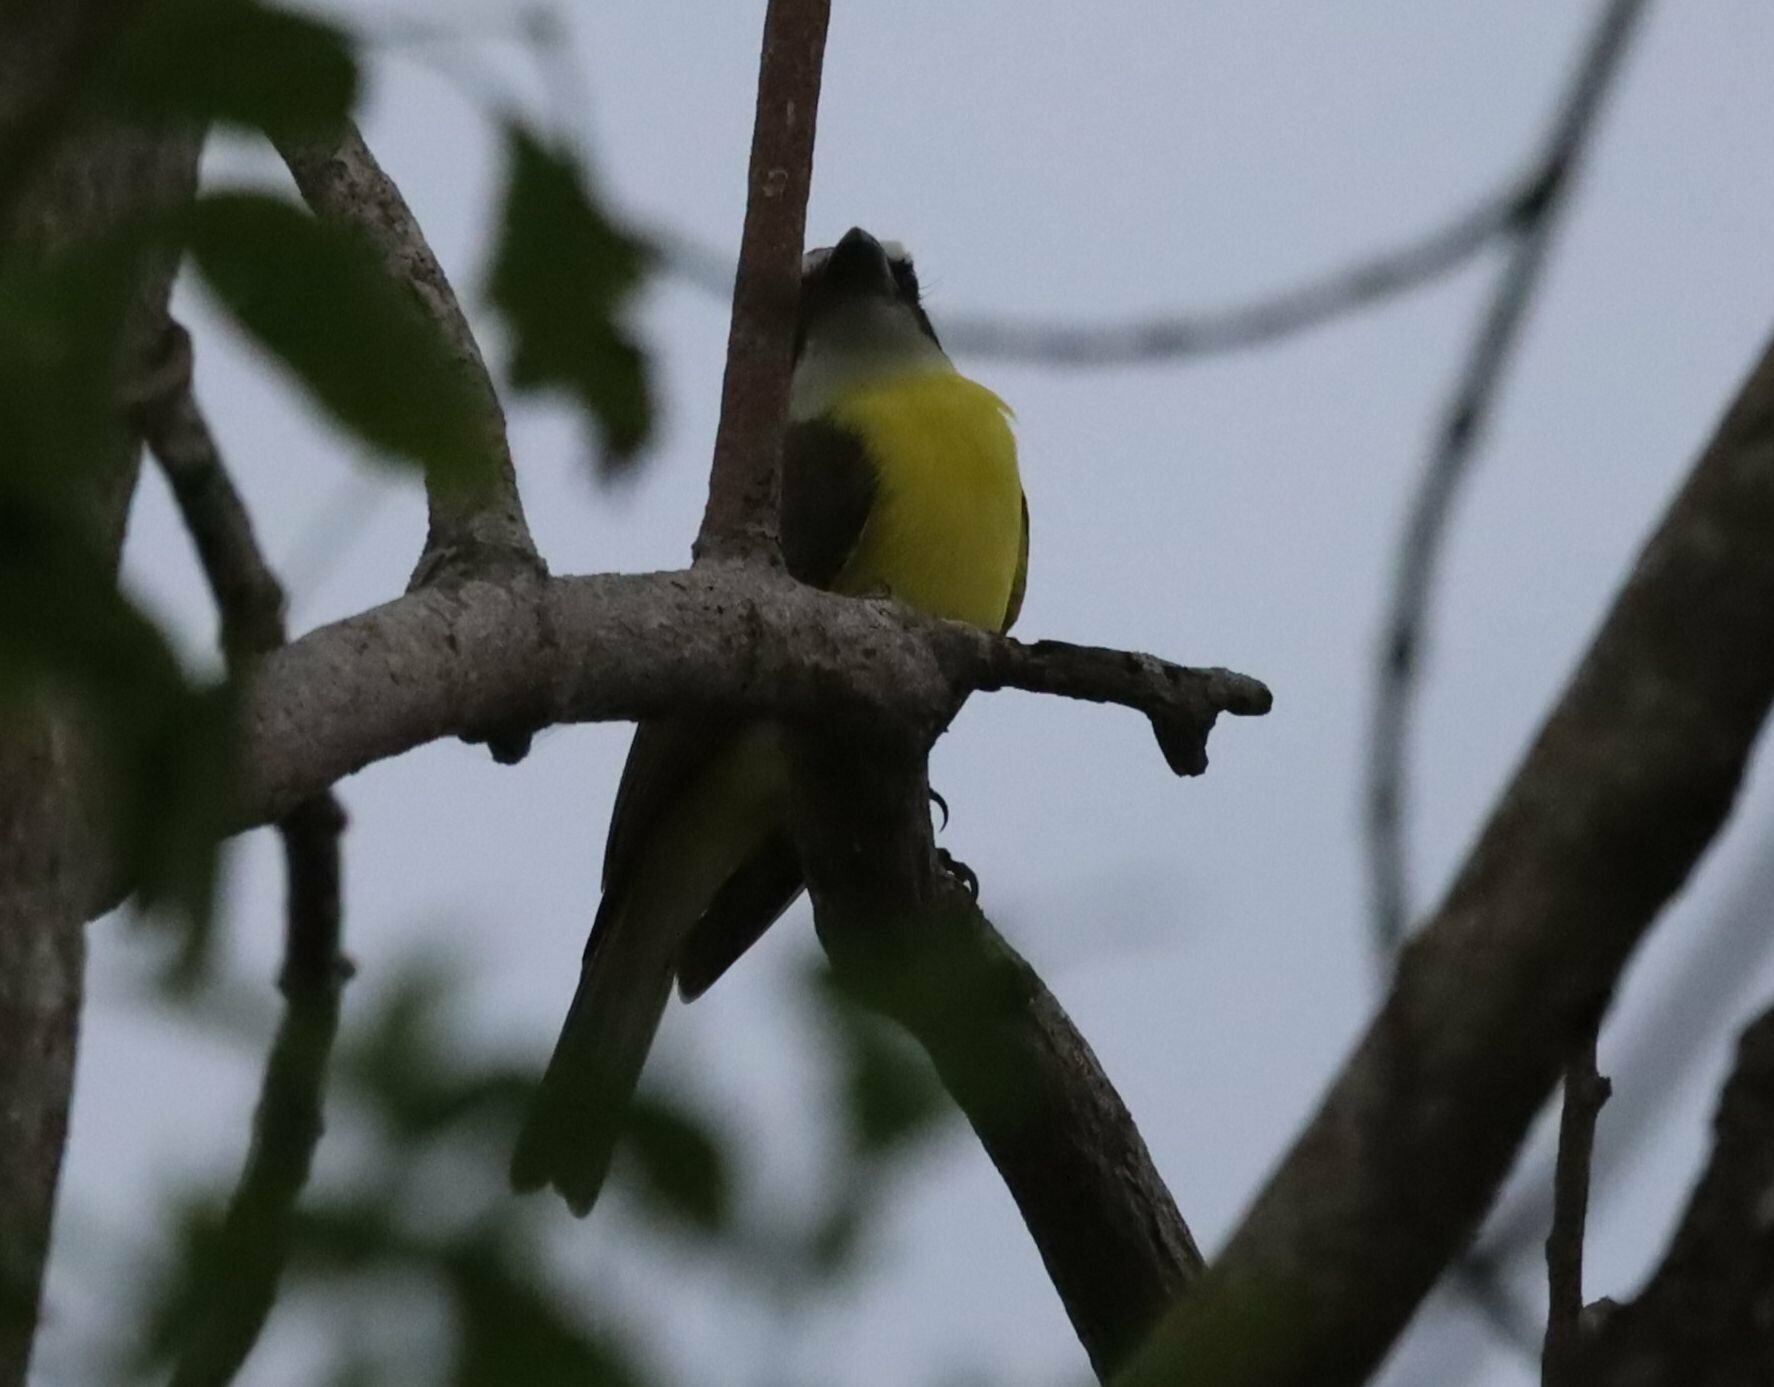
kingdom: Animalia
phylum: Chordata
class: Aves
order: Passeriformes
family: Tyrannidae
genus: Megarynchus
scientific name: Megarynchus pitangua
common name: Boat-billed flycatcher
